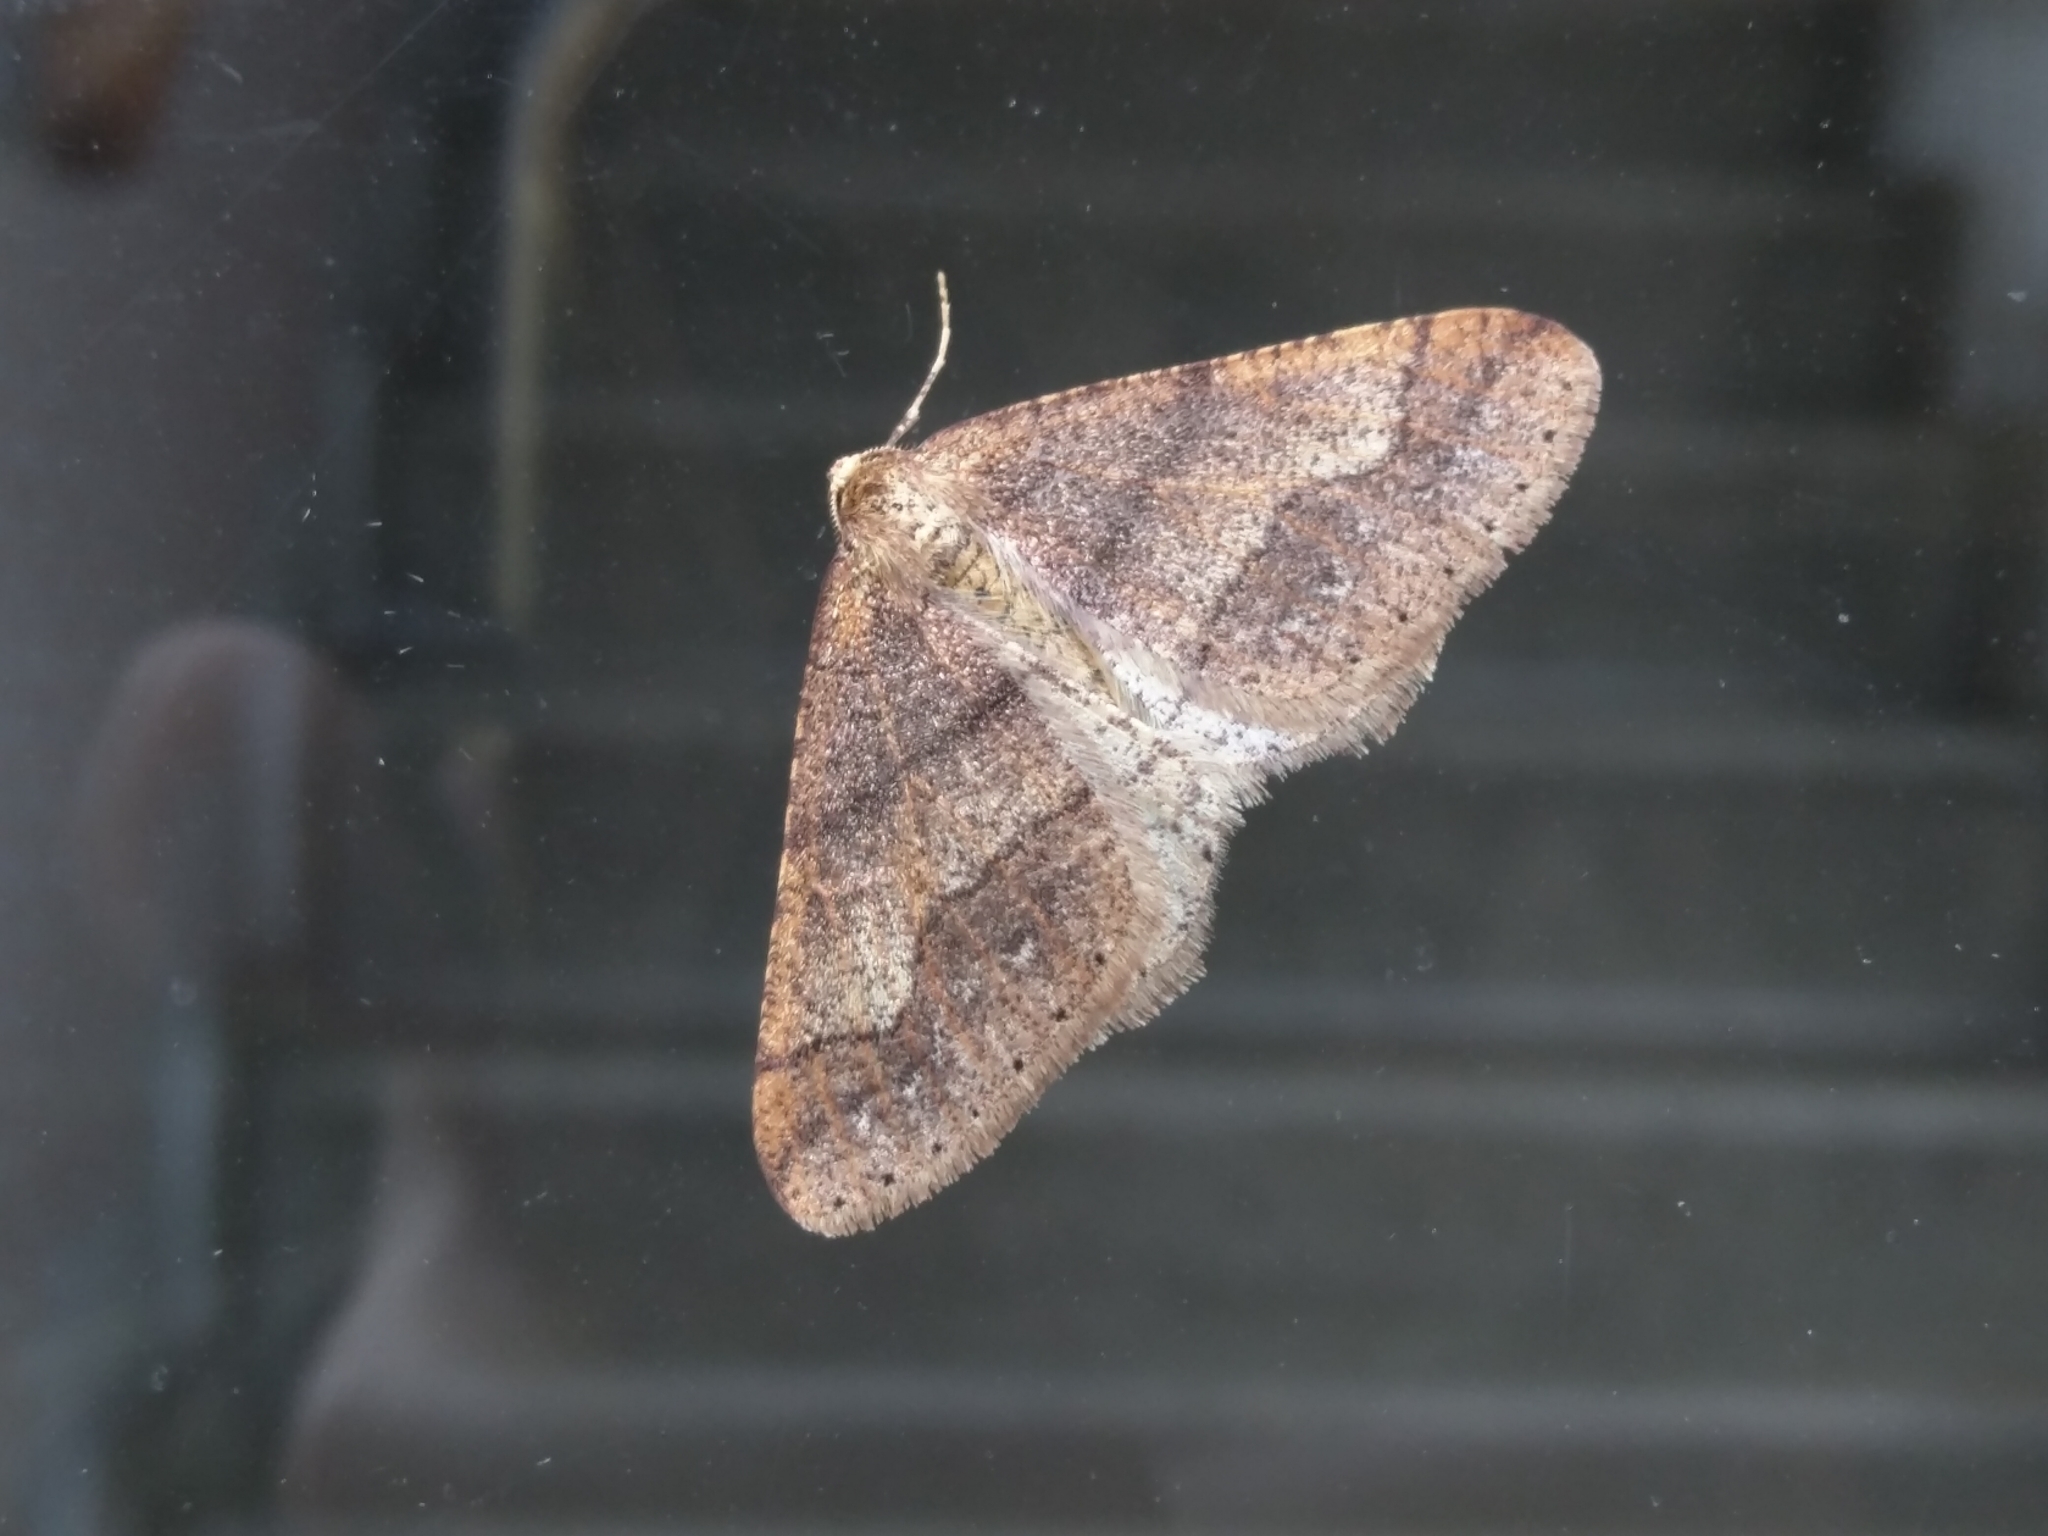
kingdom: Animalia
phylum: Arthropoda
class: Insecta
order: Lepidoptera
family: Geometridae
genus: Agriopis
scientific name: Agriopis marginaria
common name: Dotted border
